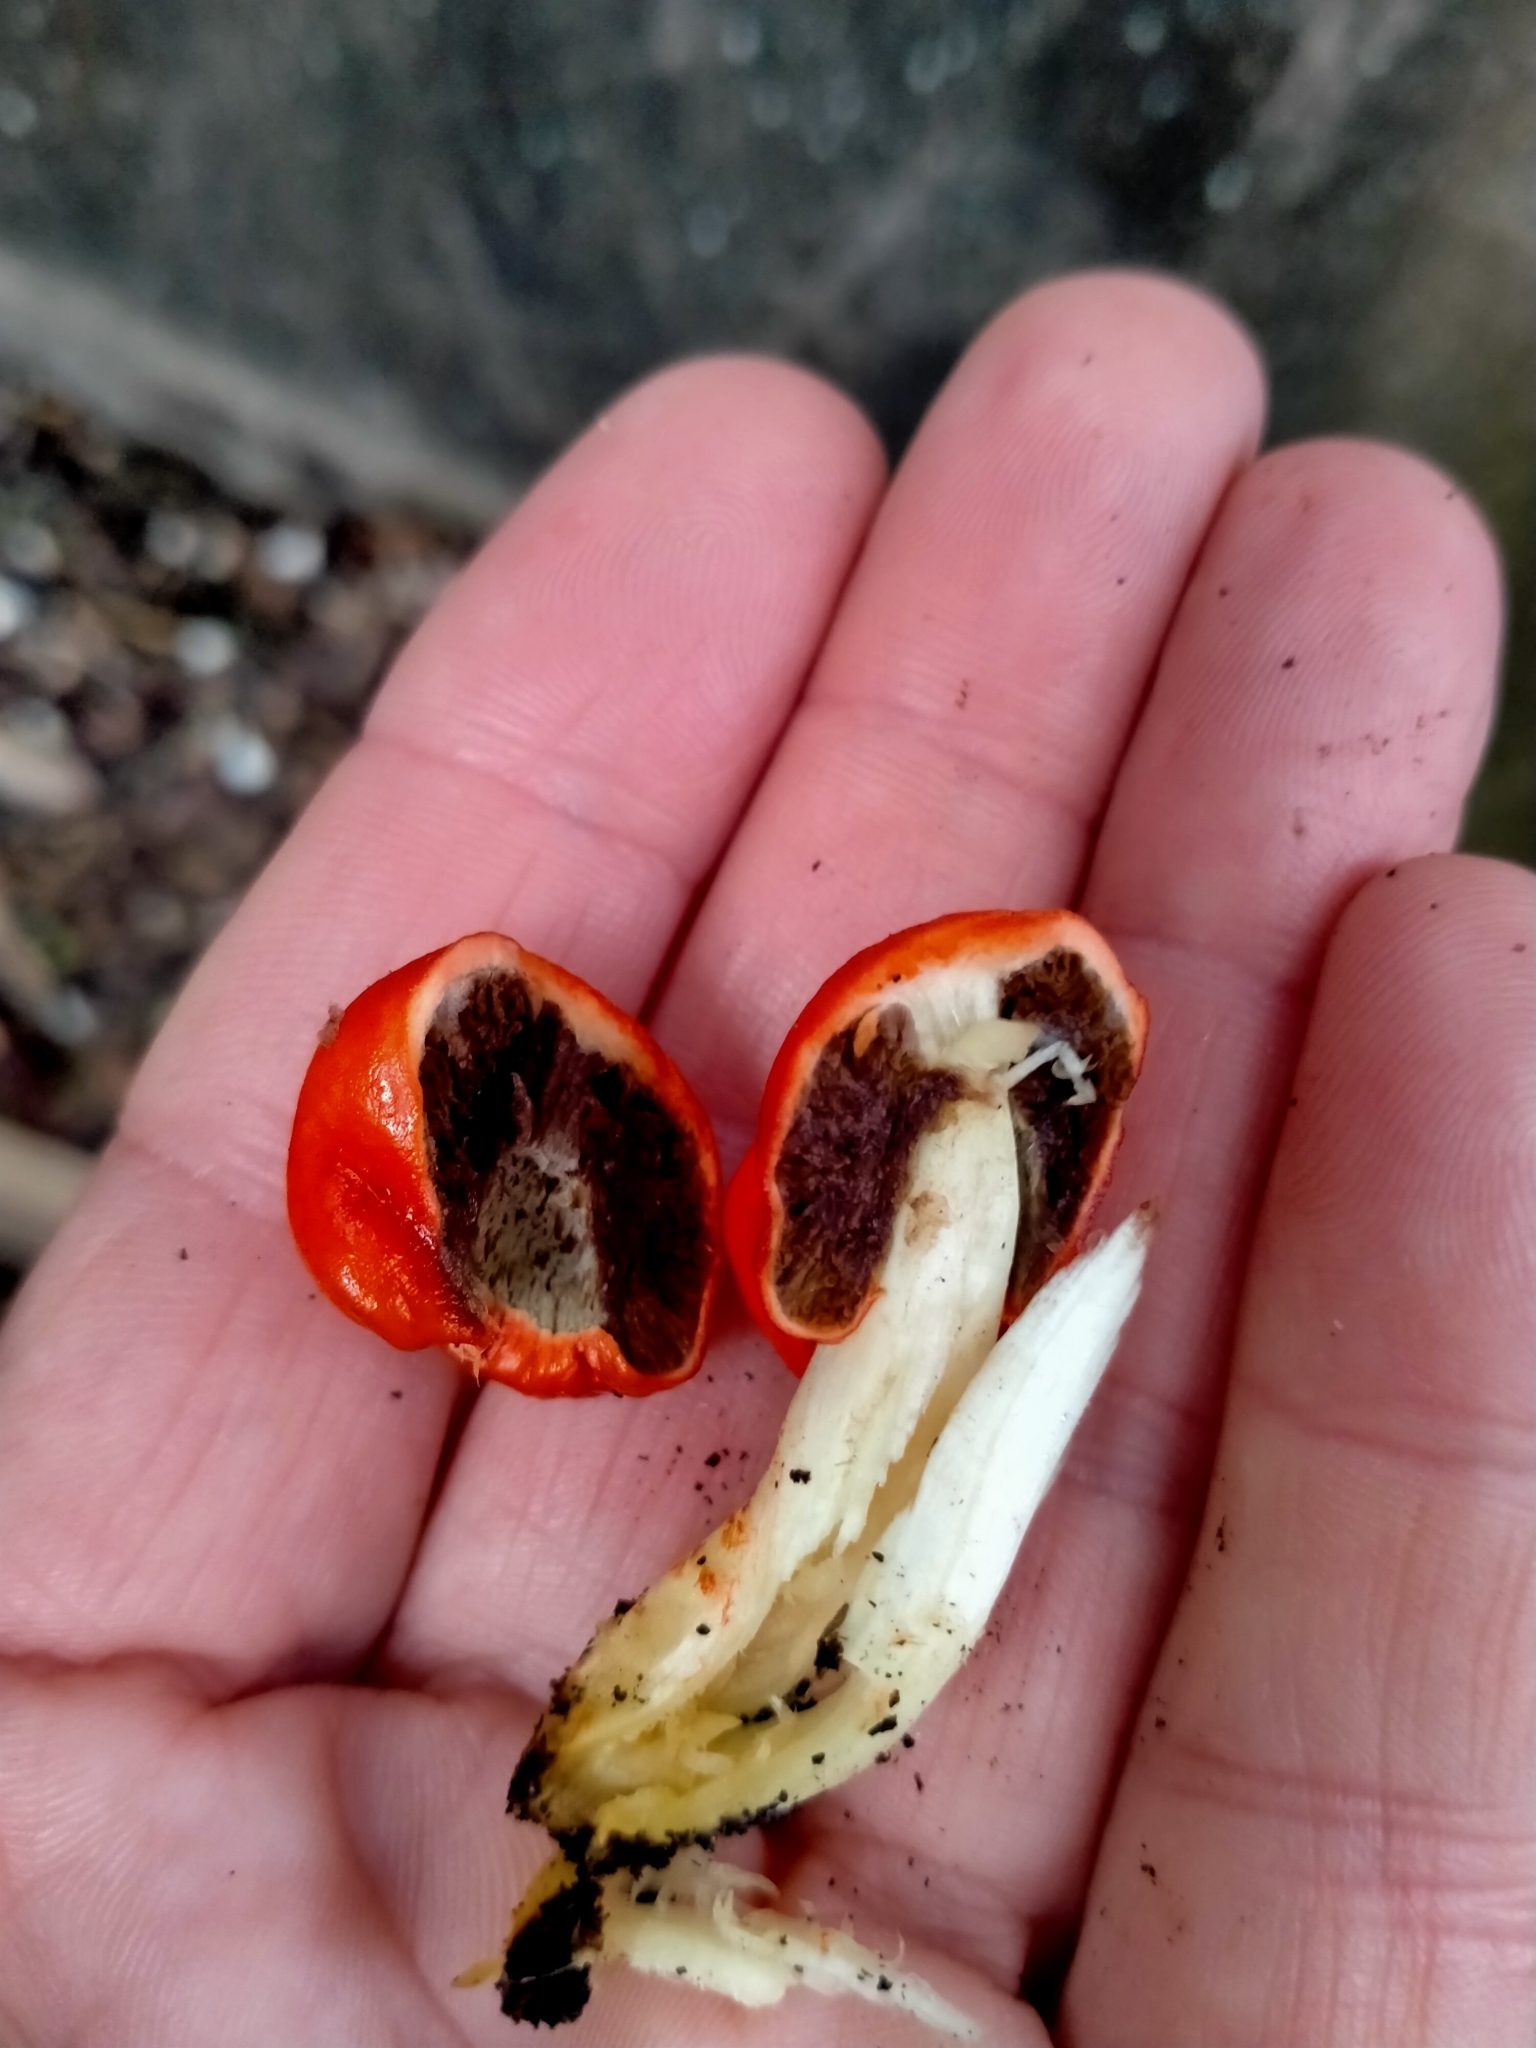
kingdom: Fungi
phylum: Basidiomycota
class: Agaricomycetes
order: Agaricales
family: Strophariaceae
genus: Leratiomyces
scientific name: Leratiomyces erythrocephalus
